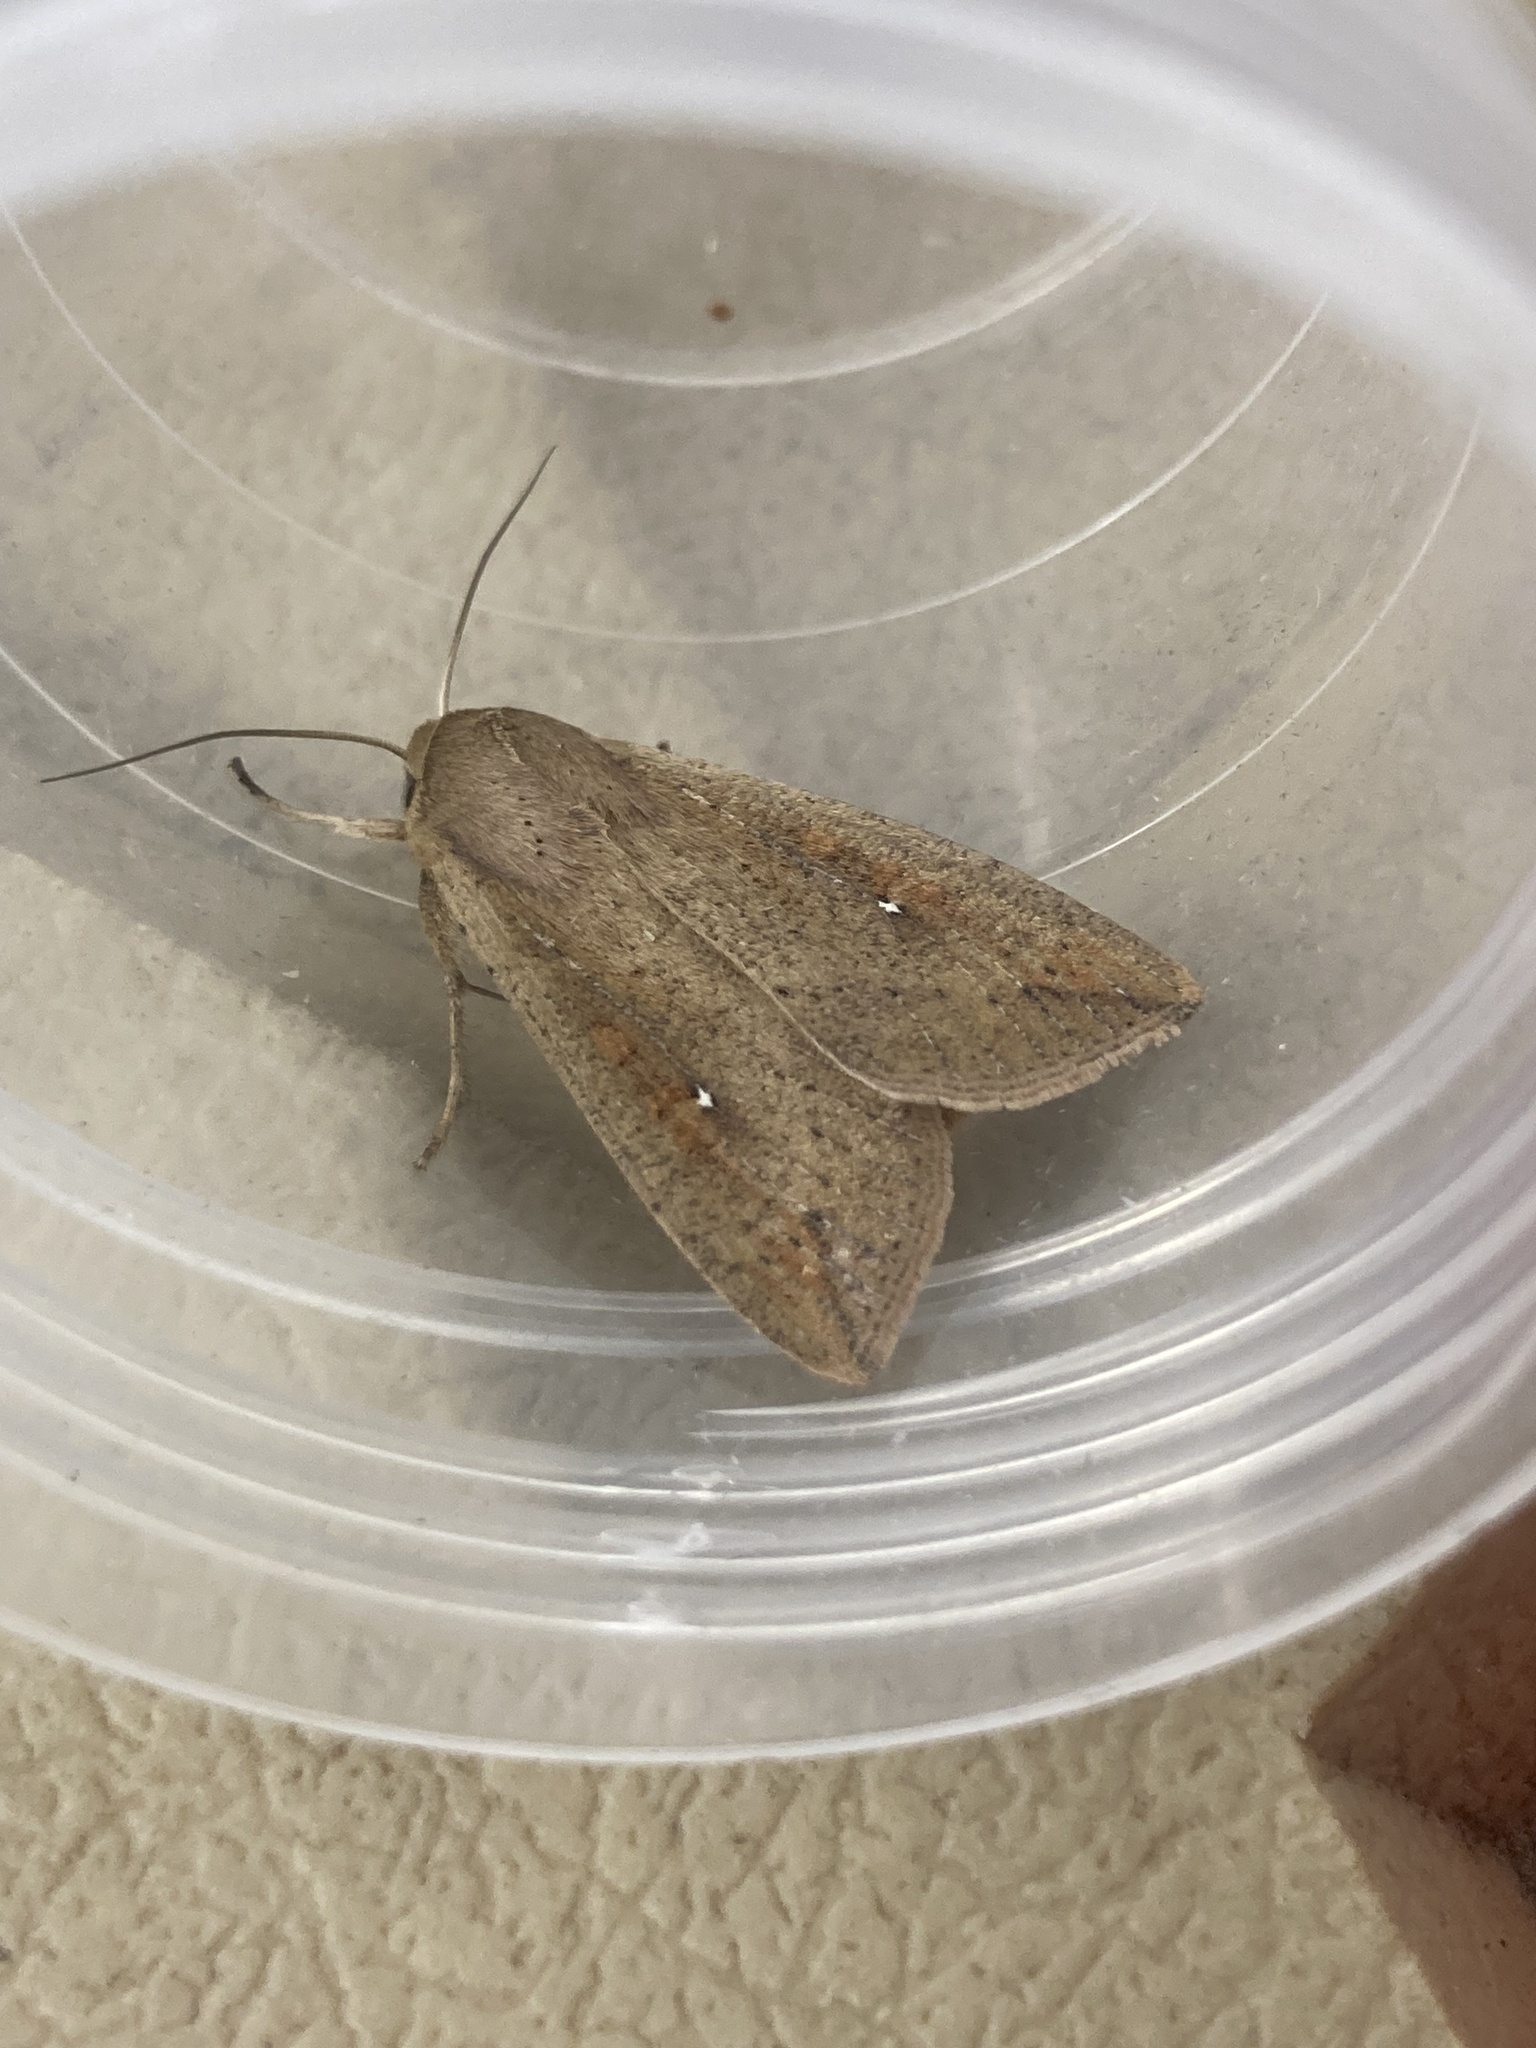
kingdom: Animalia
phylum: Arthropoda
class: Insecta
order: Lepidoptera
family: Noctuidae
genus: Mythimna
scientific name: Mythimna unipuncta
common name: White-speck
